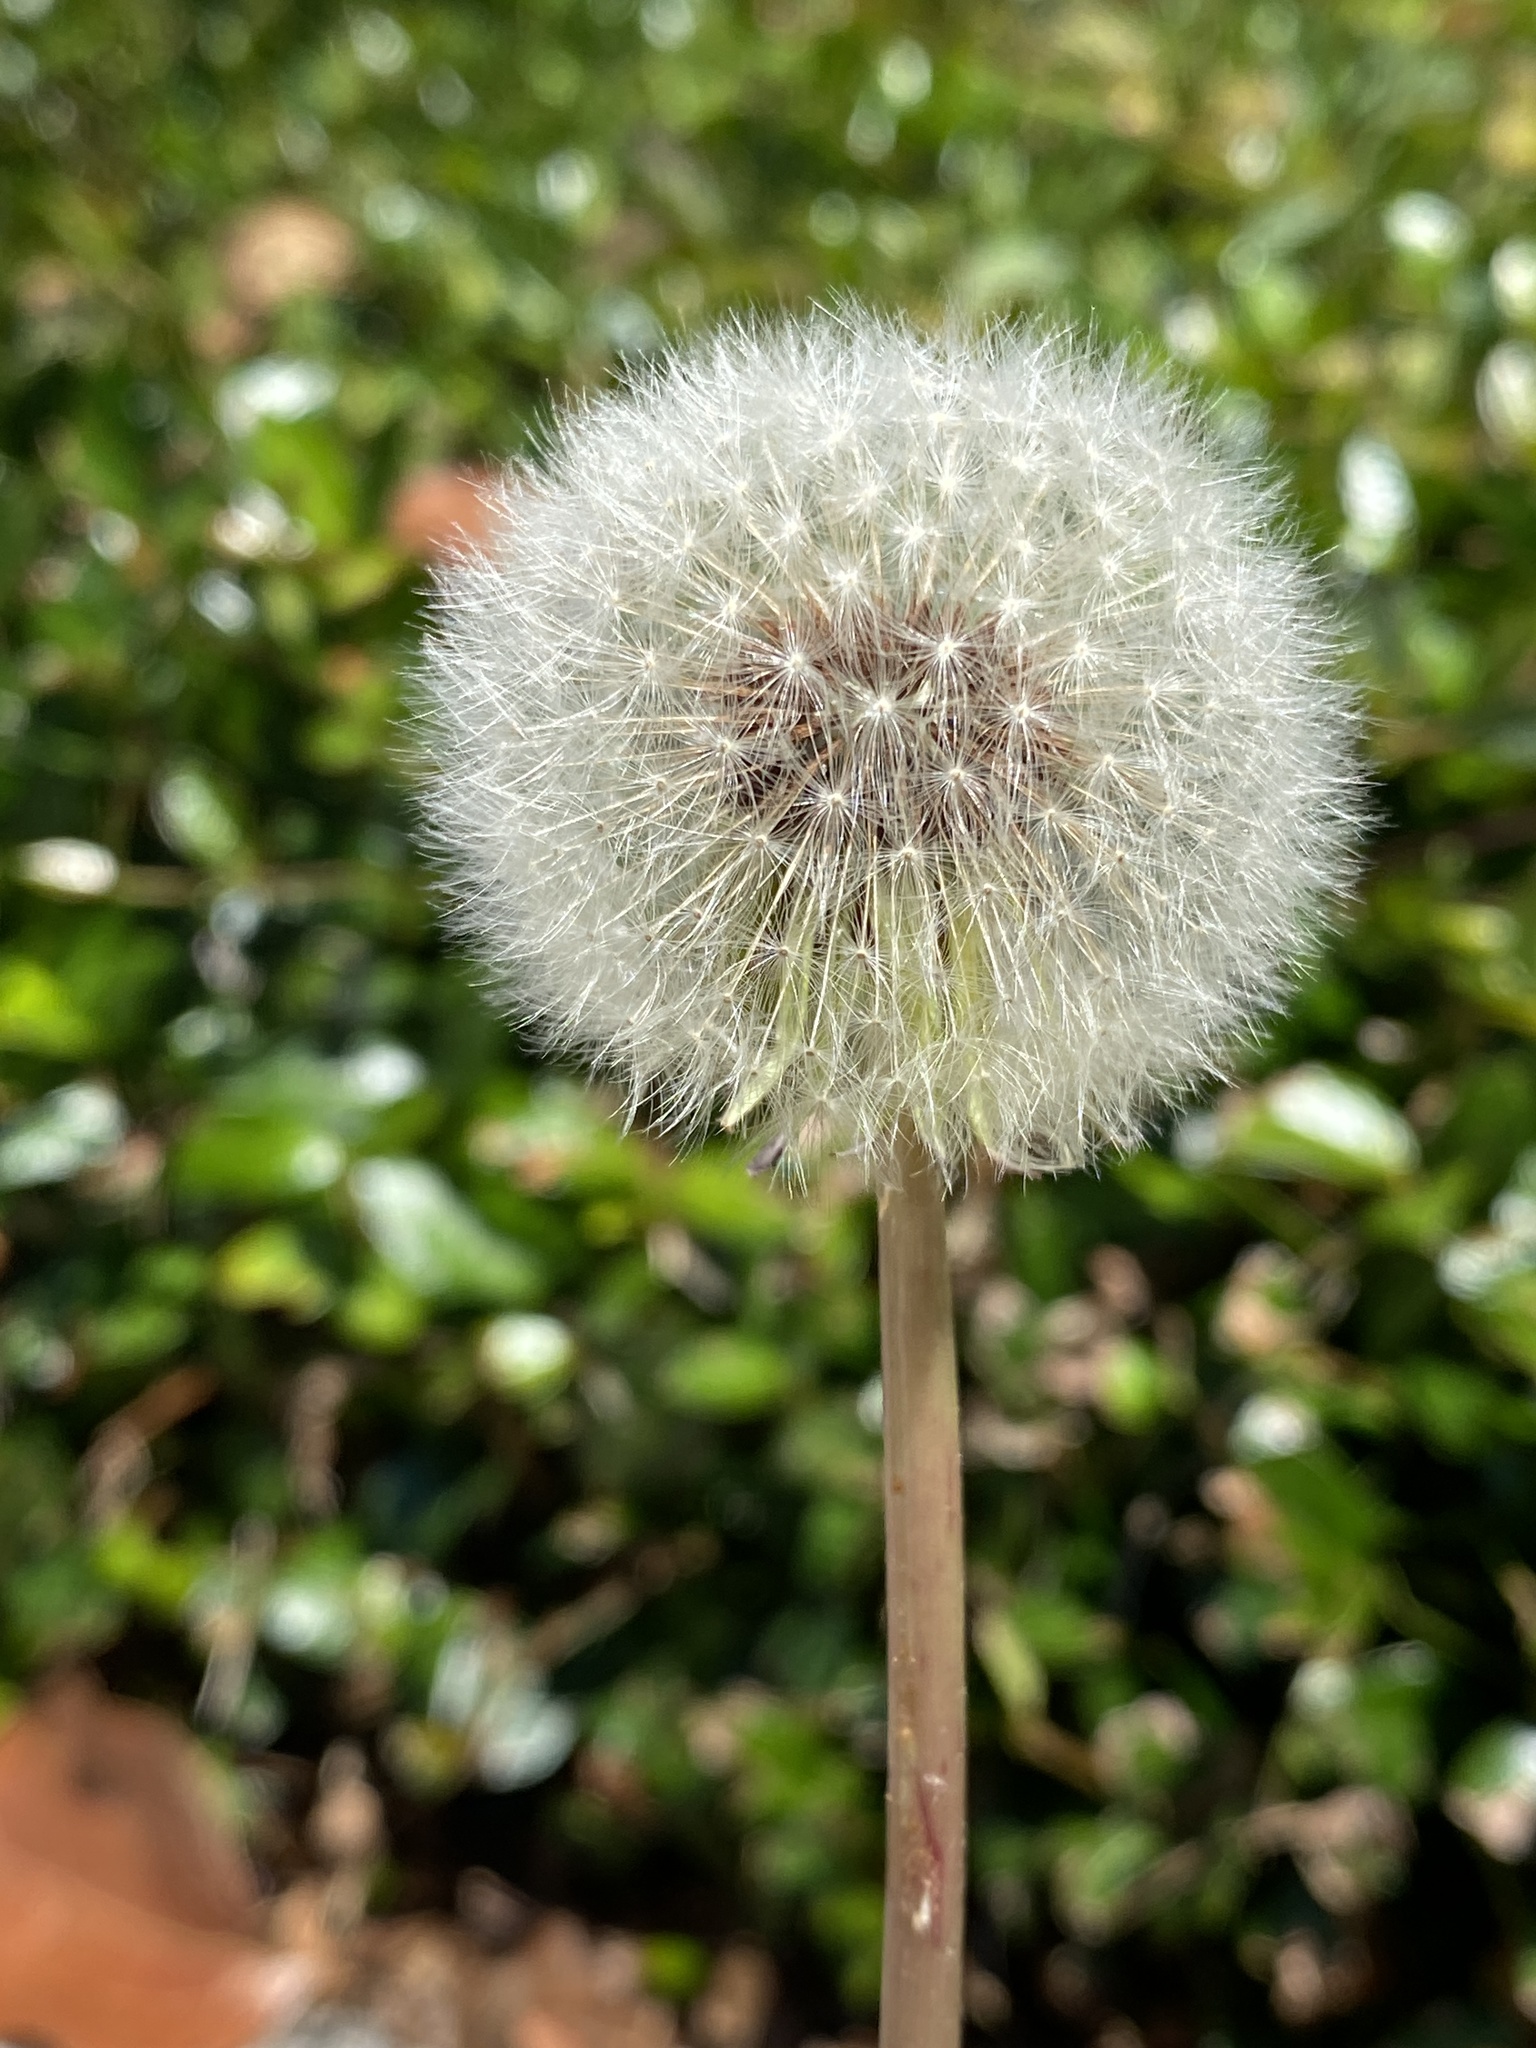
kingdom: Plantae
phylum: Tracheophyta
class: Magnoliopsida
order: Asterales
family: Asteraceae
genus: Taraxacum
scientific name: Taraxacum officinale
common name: Common dandelion
